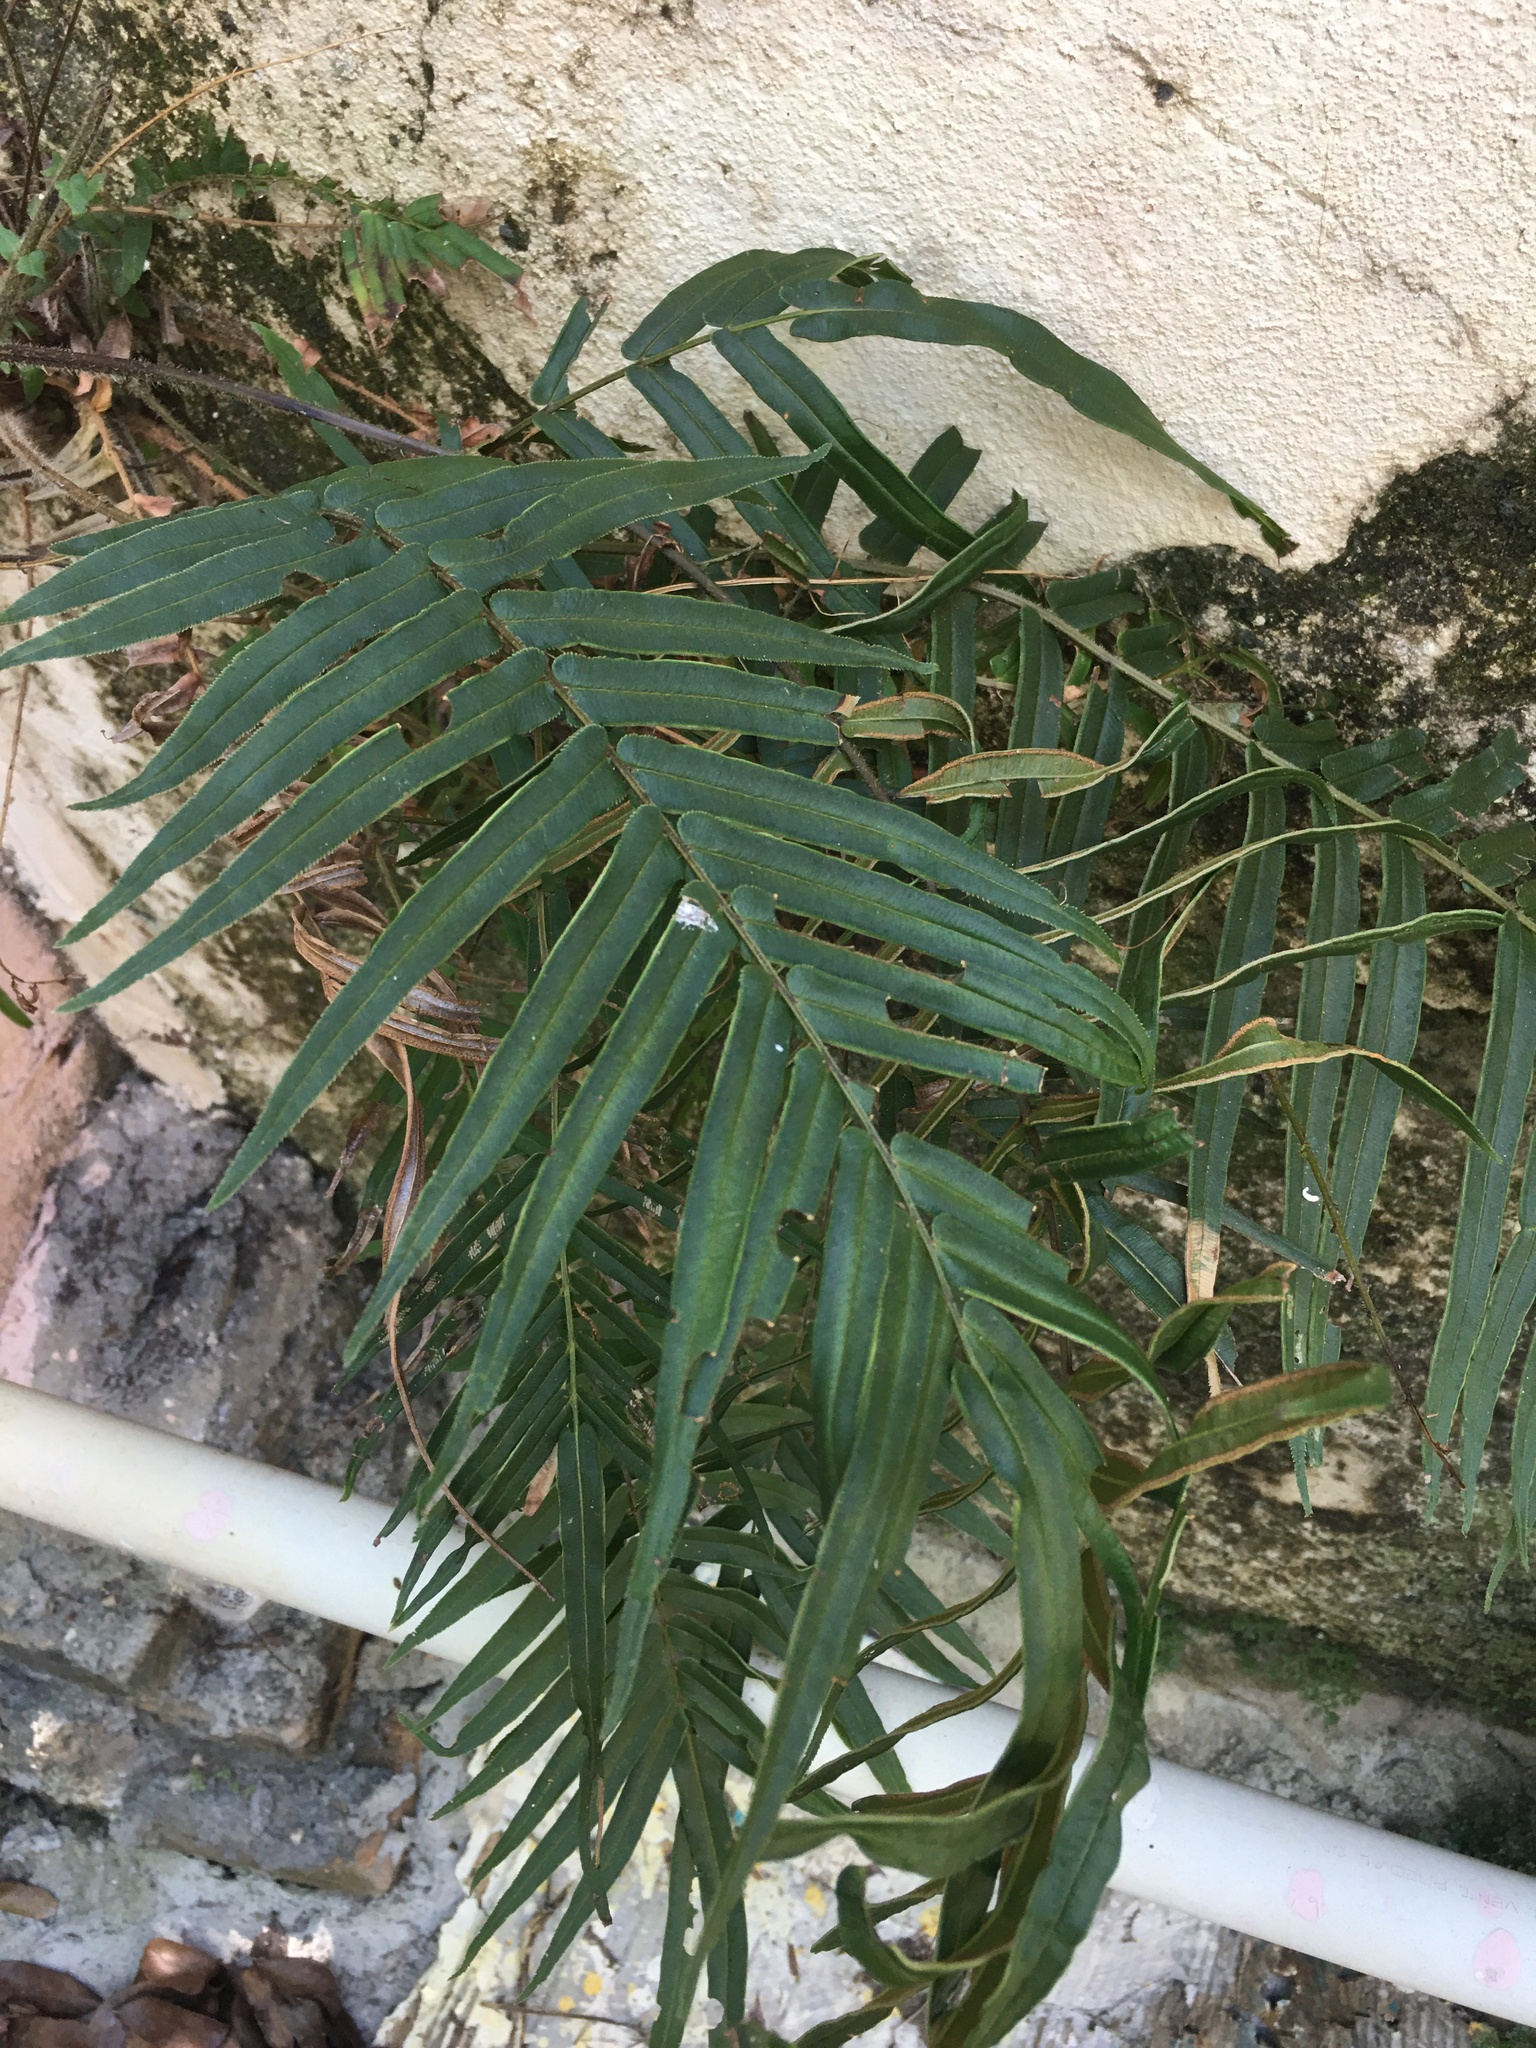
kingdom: Plantae
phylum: Tracheophyta
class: Polypodiopsida
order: Polypodiales
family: Pteridaceae
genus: Pteris
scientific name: Pteris vittata
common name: Ladder brake
